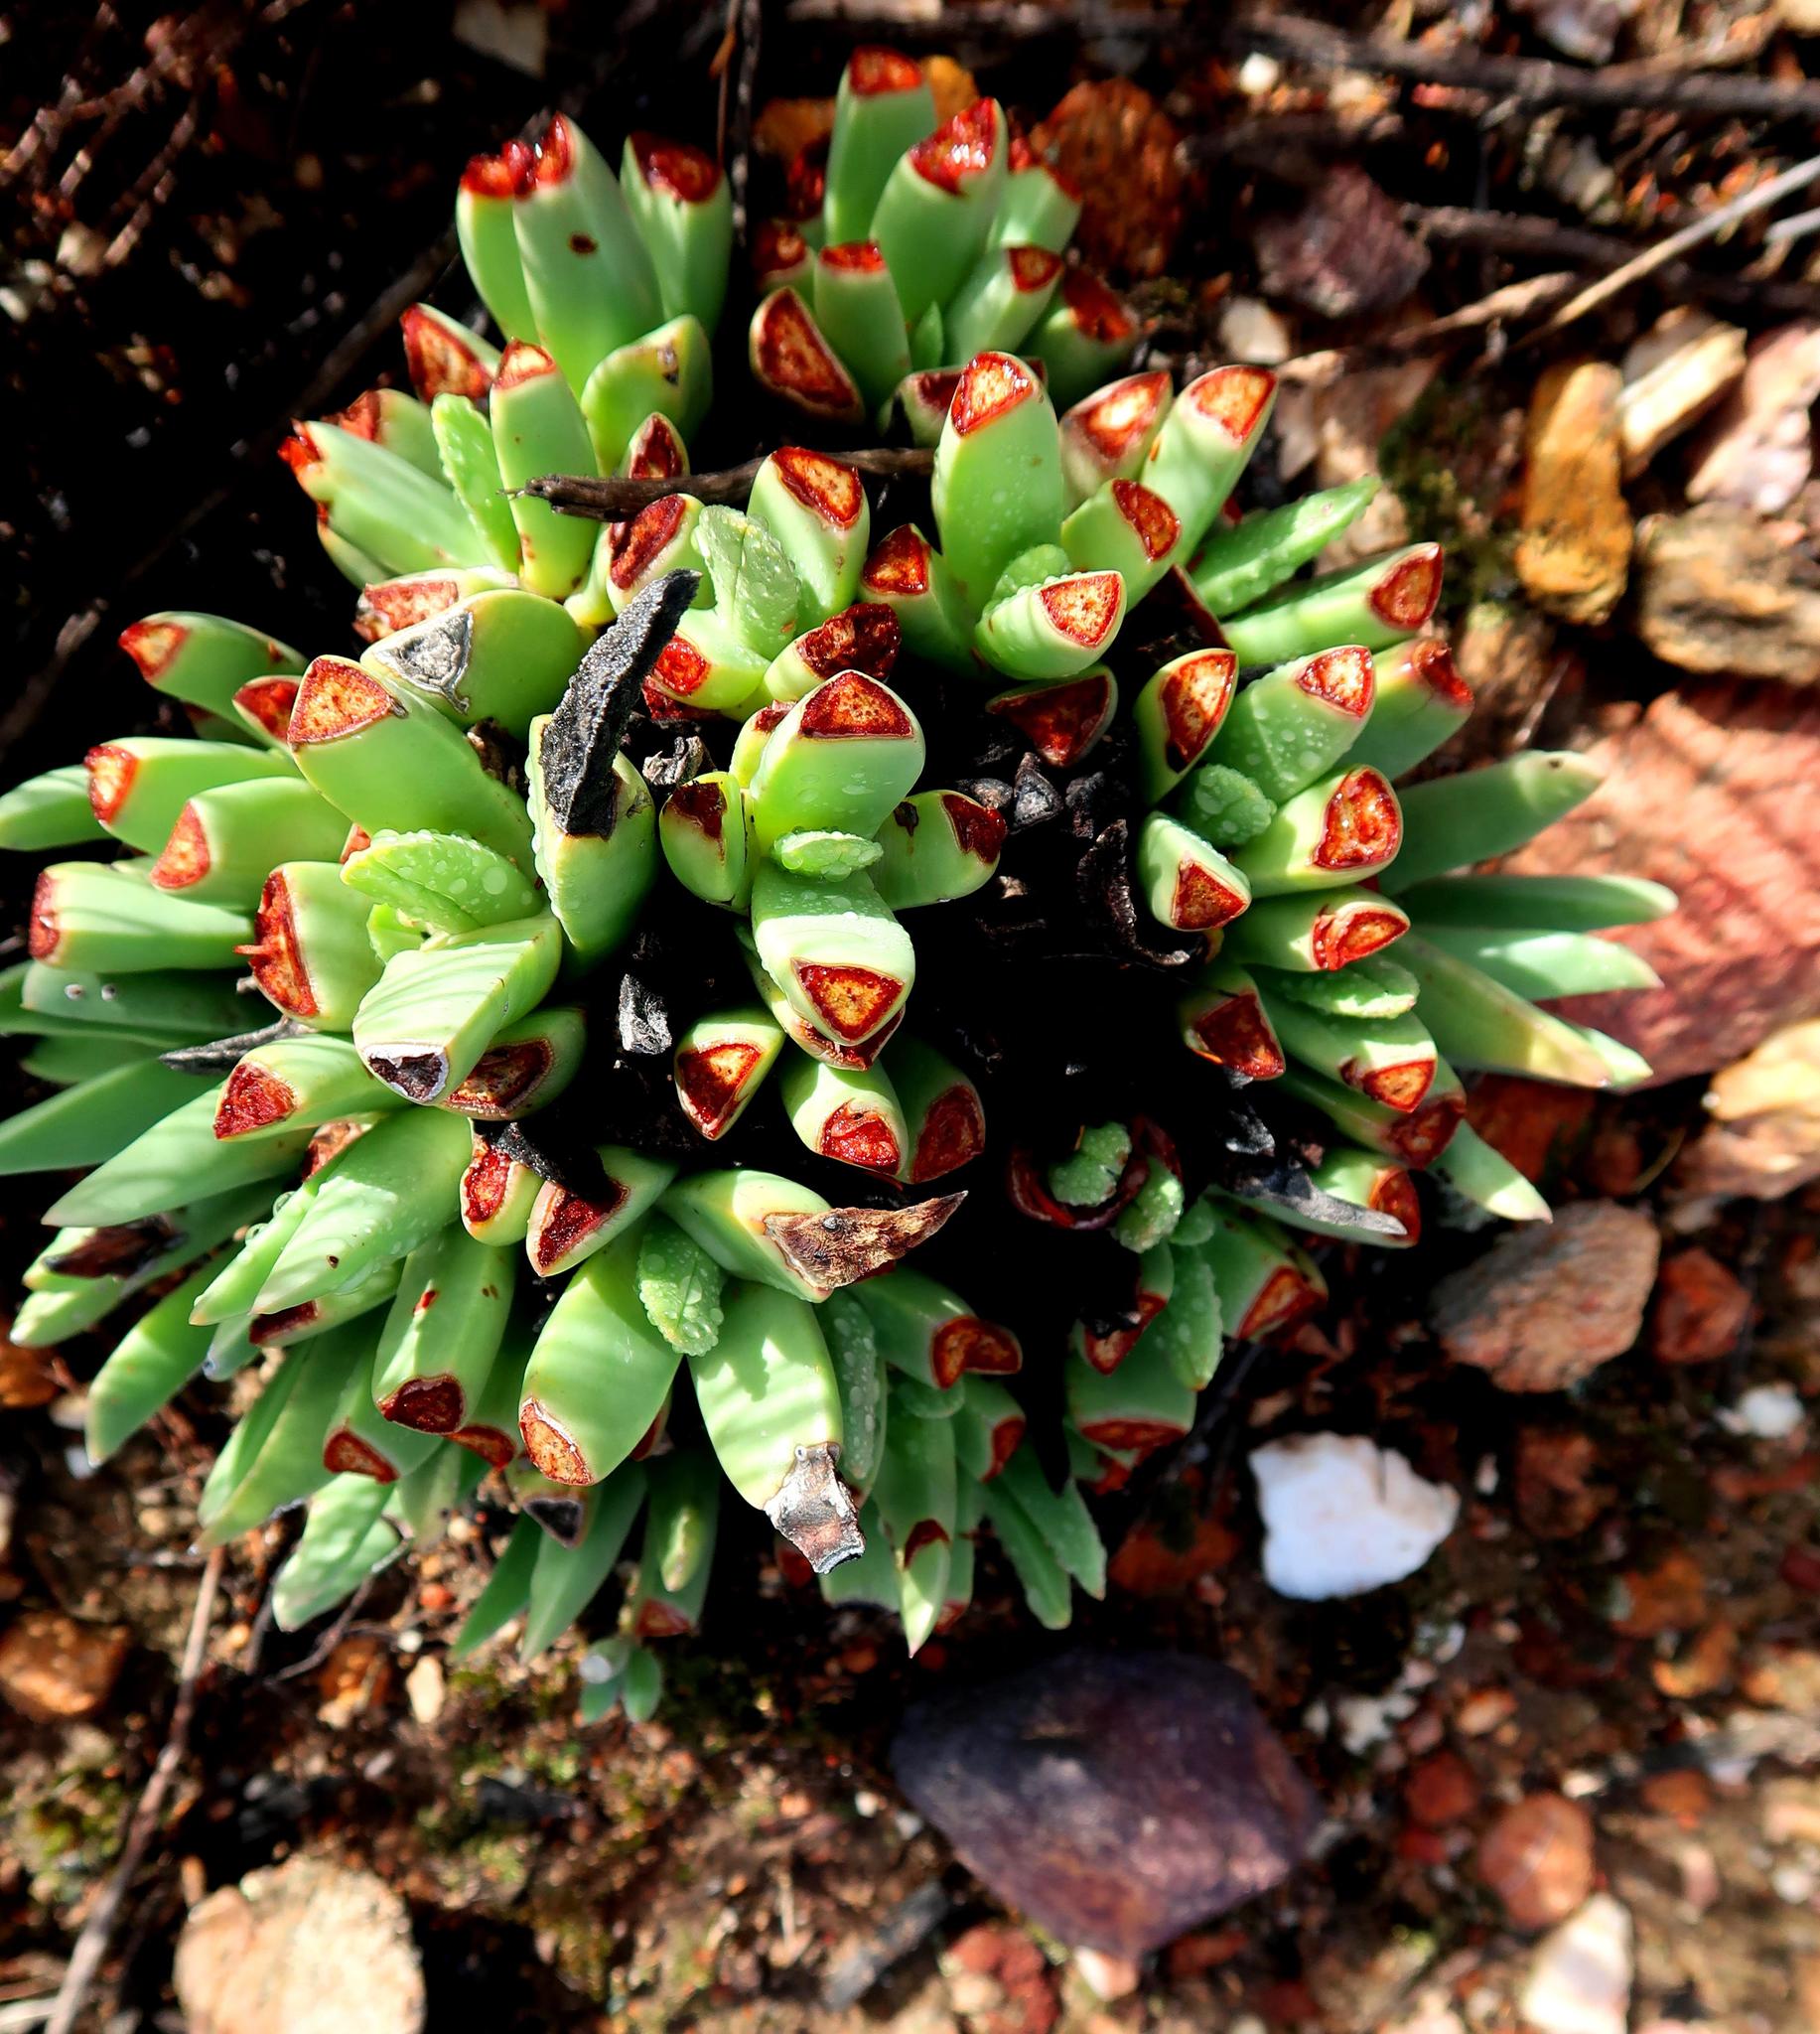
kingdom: Plantae
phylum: Tracheophyta
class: Magnoliopsida
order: Caryophyllales
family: Aizoaceae
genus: Machairophyllum
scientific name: Machairophyllum albidum
